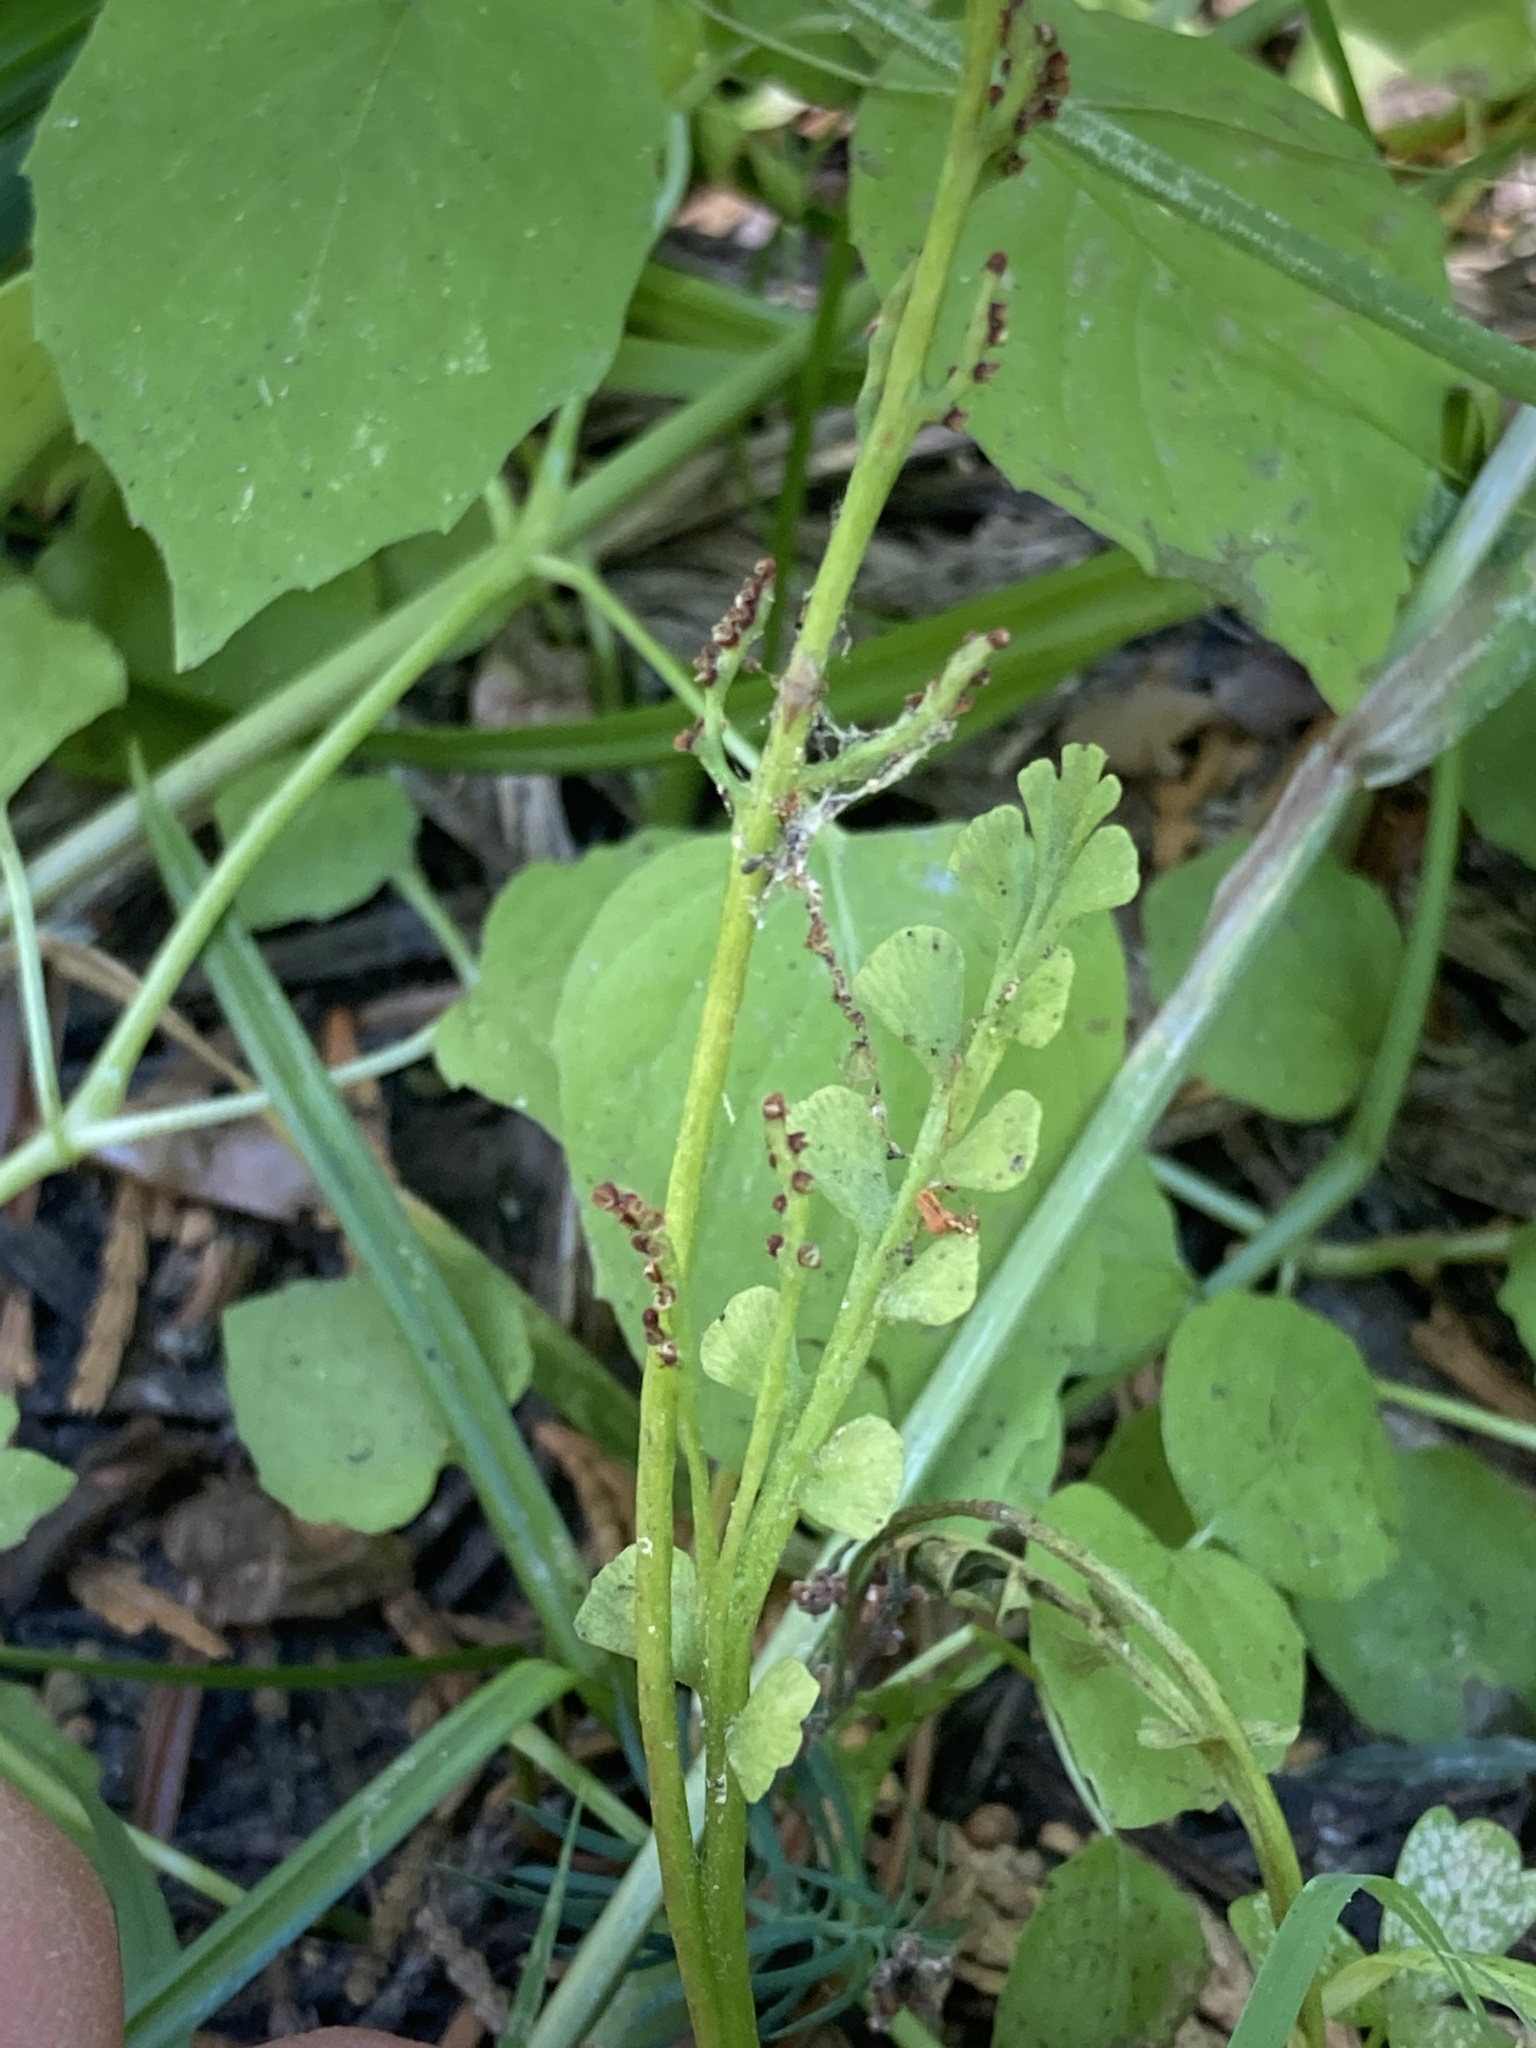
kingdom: Plantae
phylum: Tracheophyta
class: Polypodiopsida
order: Ophioglossales
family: Ophioglossaceae
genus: Botrychium
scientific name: Botrychium minganense
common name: Mingan grapefern
